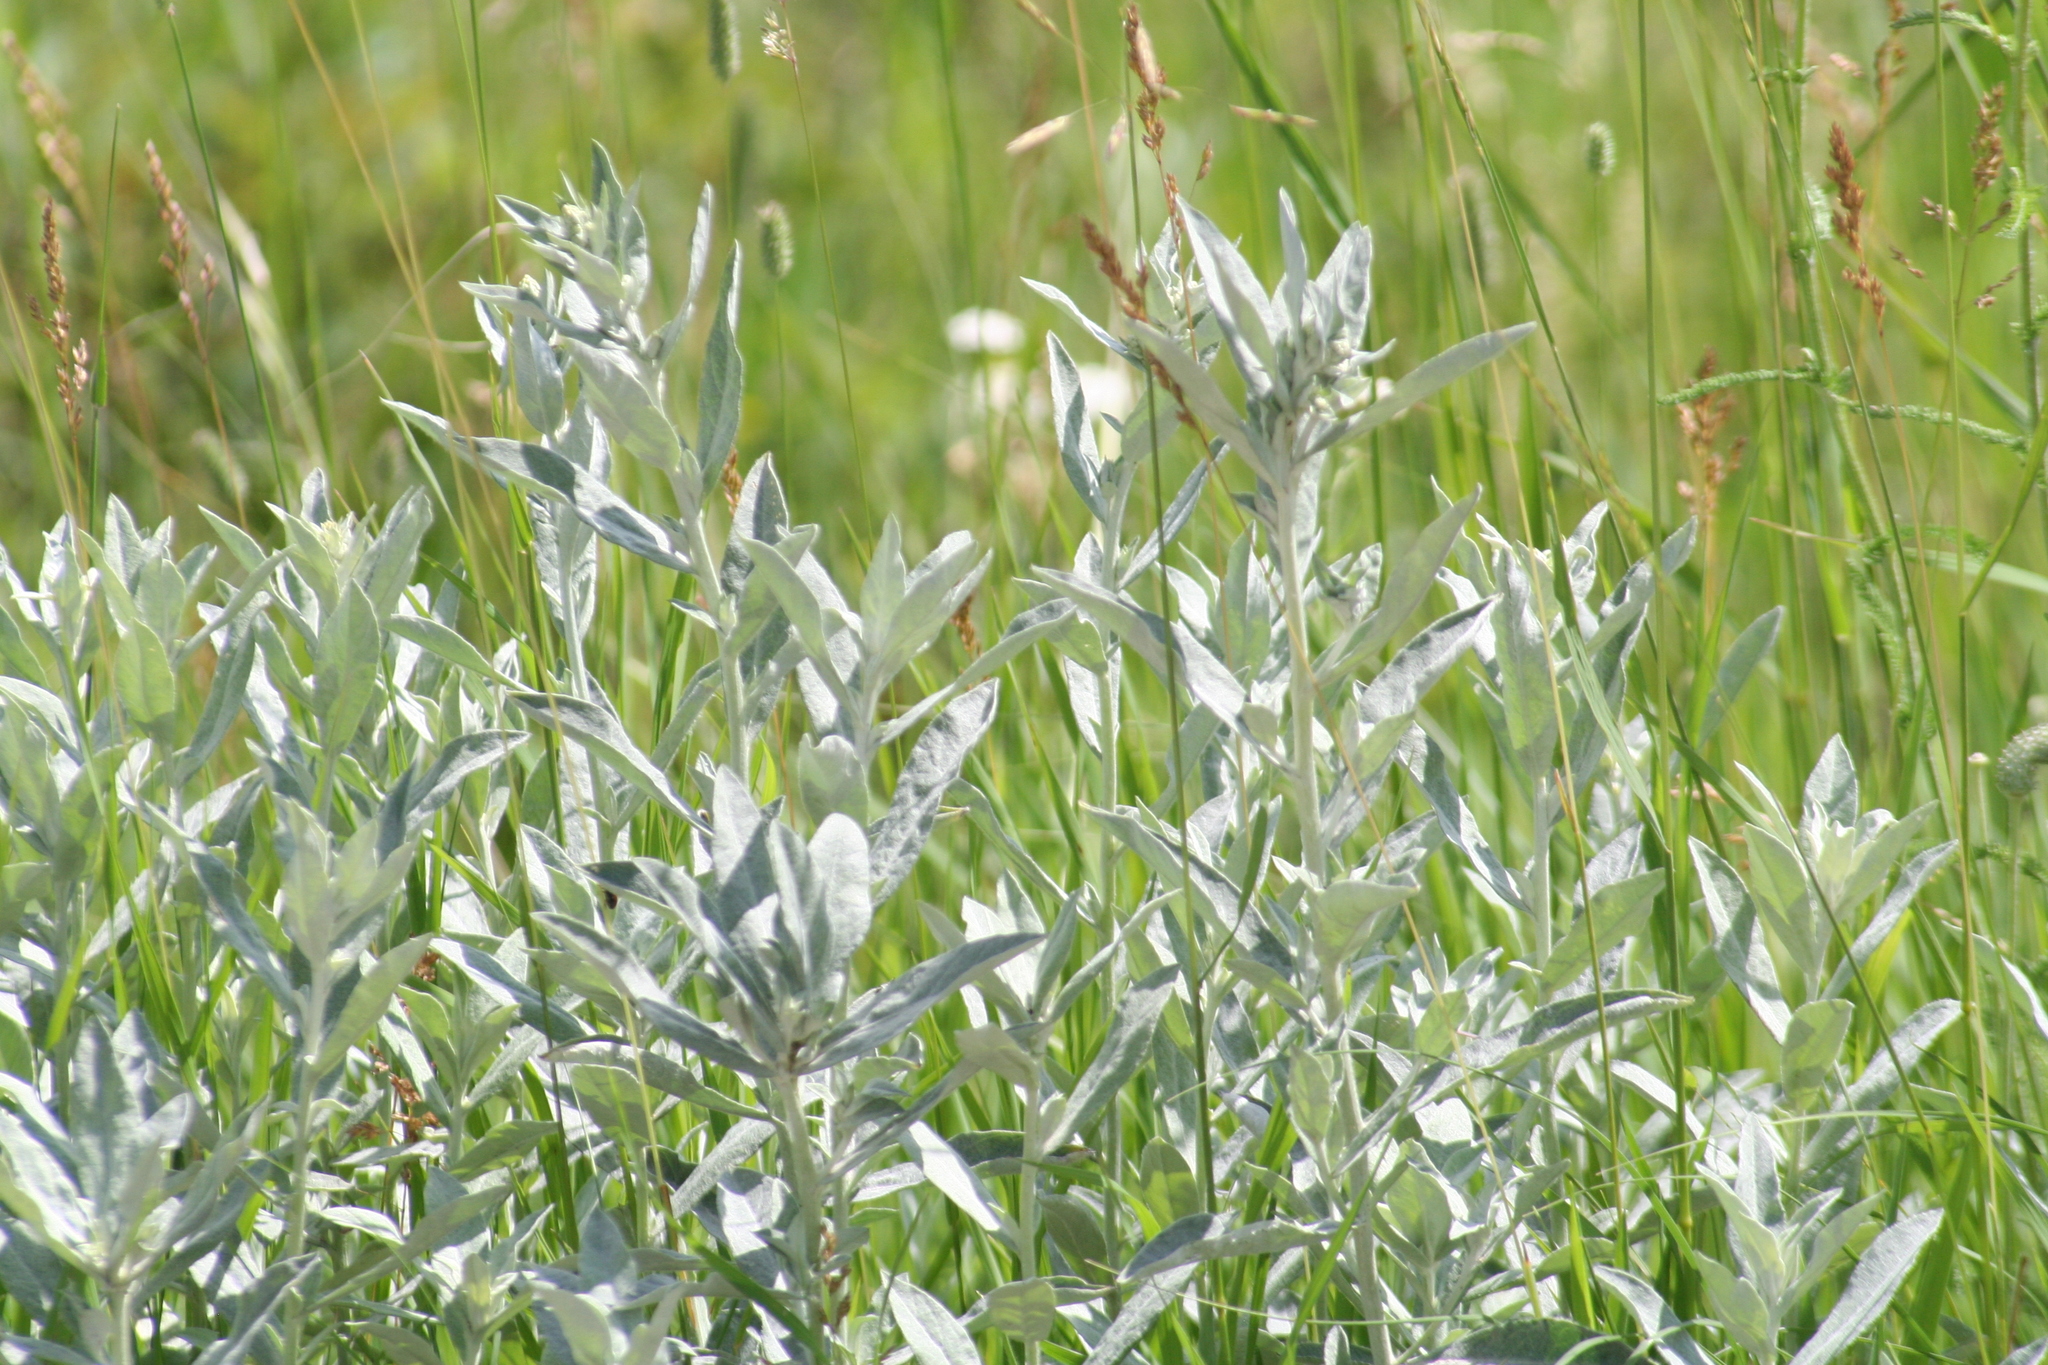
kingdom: Plantae
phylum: Tracheophyta
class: Magnoliopsida
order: Asterales
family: Asteraceae
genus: Artemisia
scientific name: Artemisia ludoviciana
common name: Western mugwort
